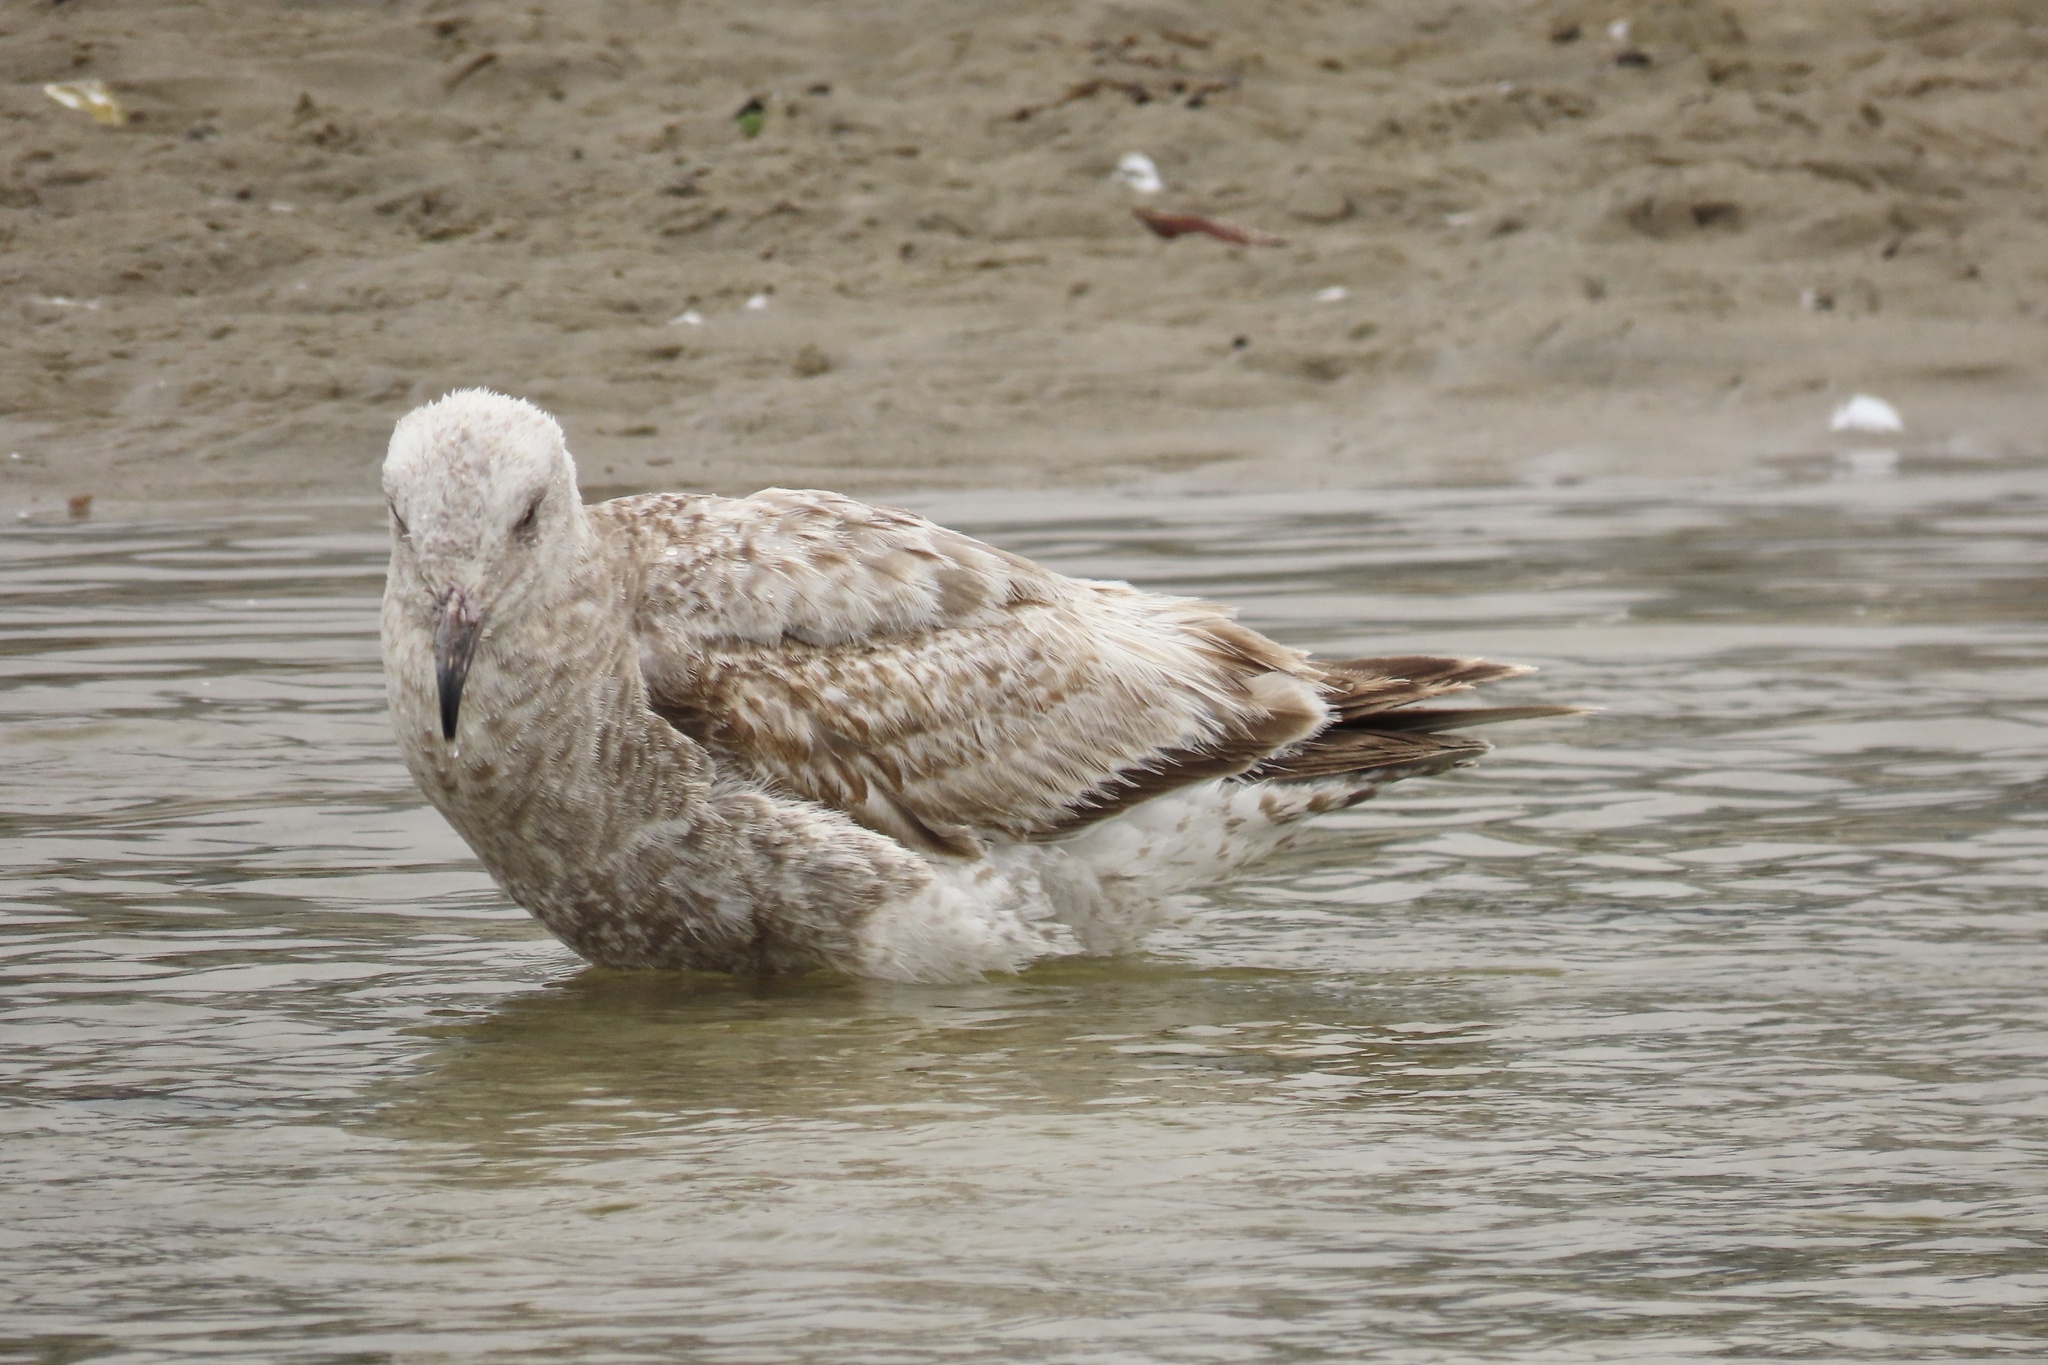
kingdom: Animalia
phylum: Chordata
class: Aves
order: Charadriiformes
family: Laridae
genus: Larus
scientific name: Larus occidentalis
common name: Western gull
